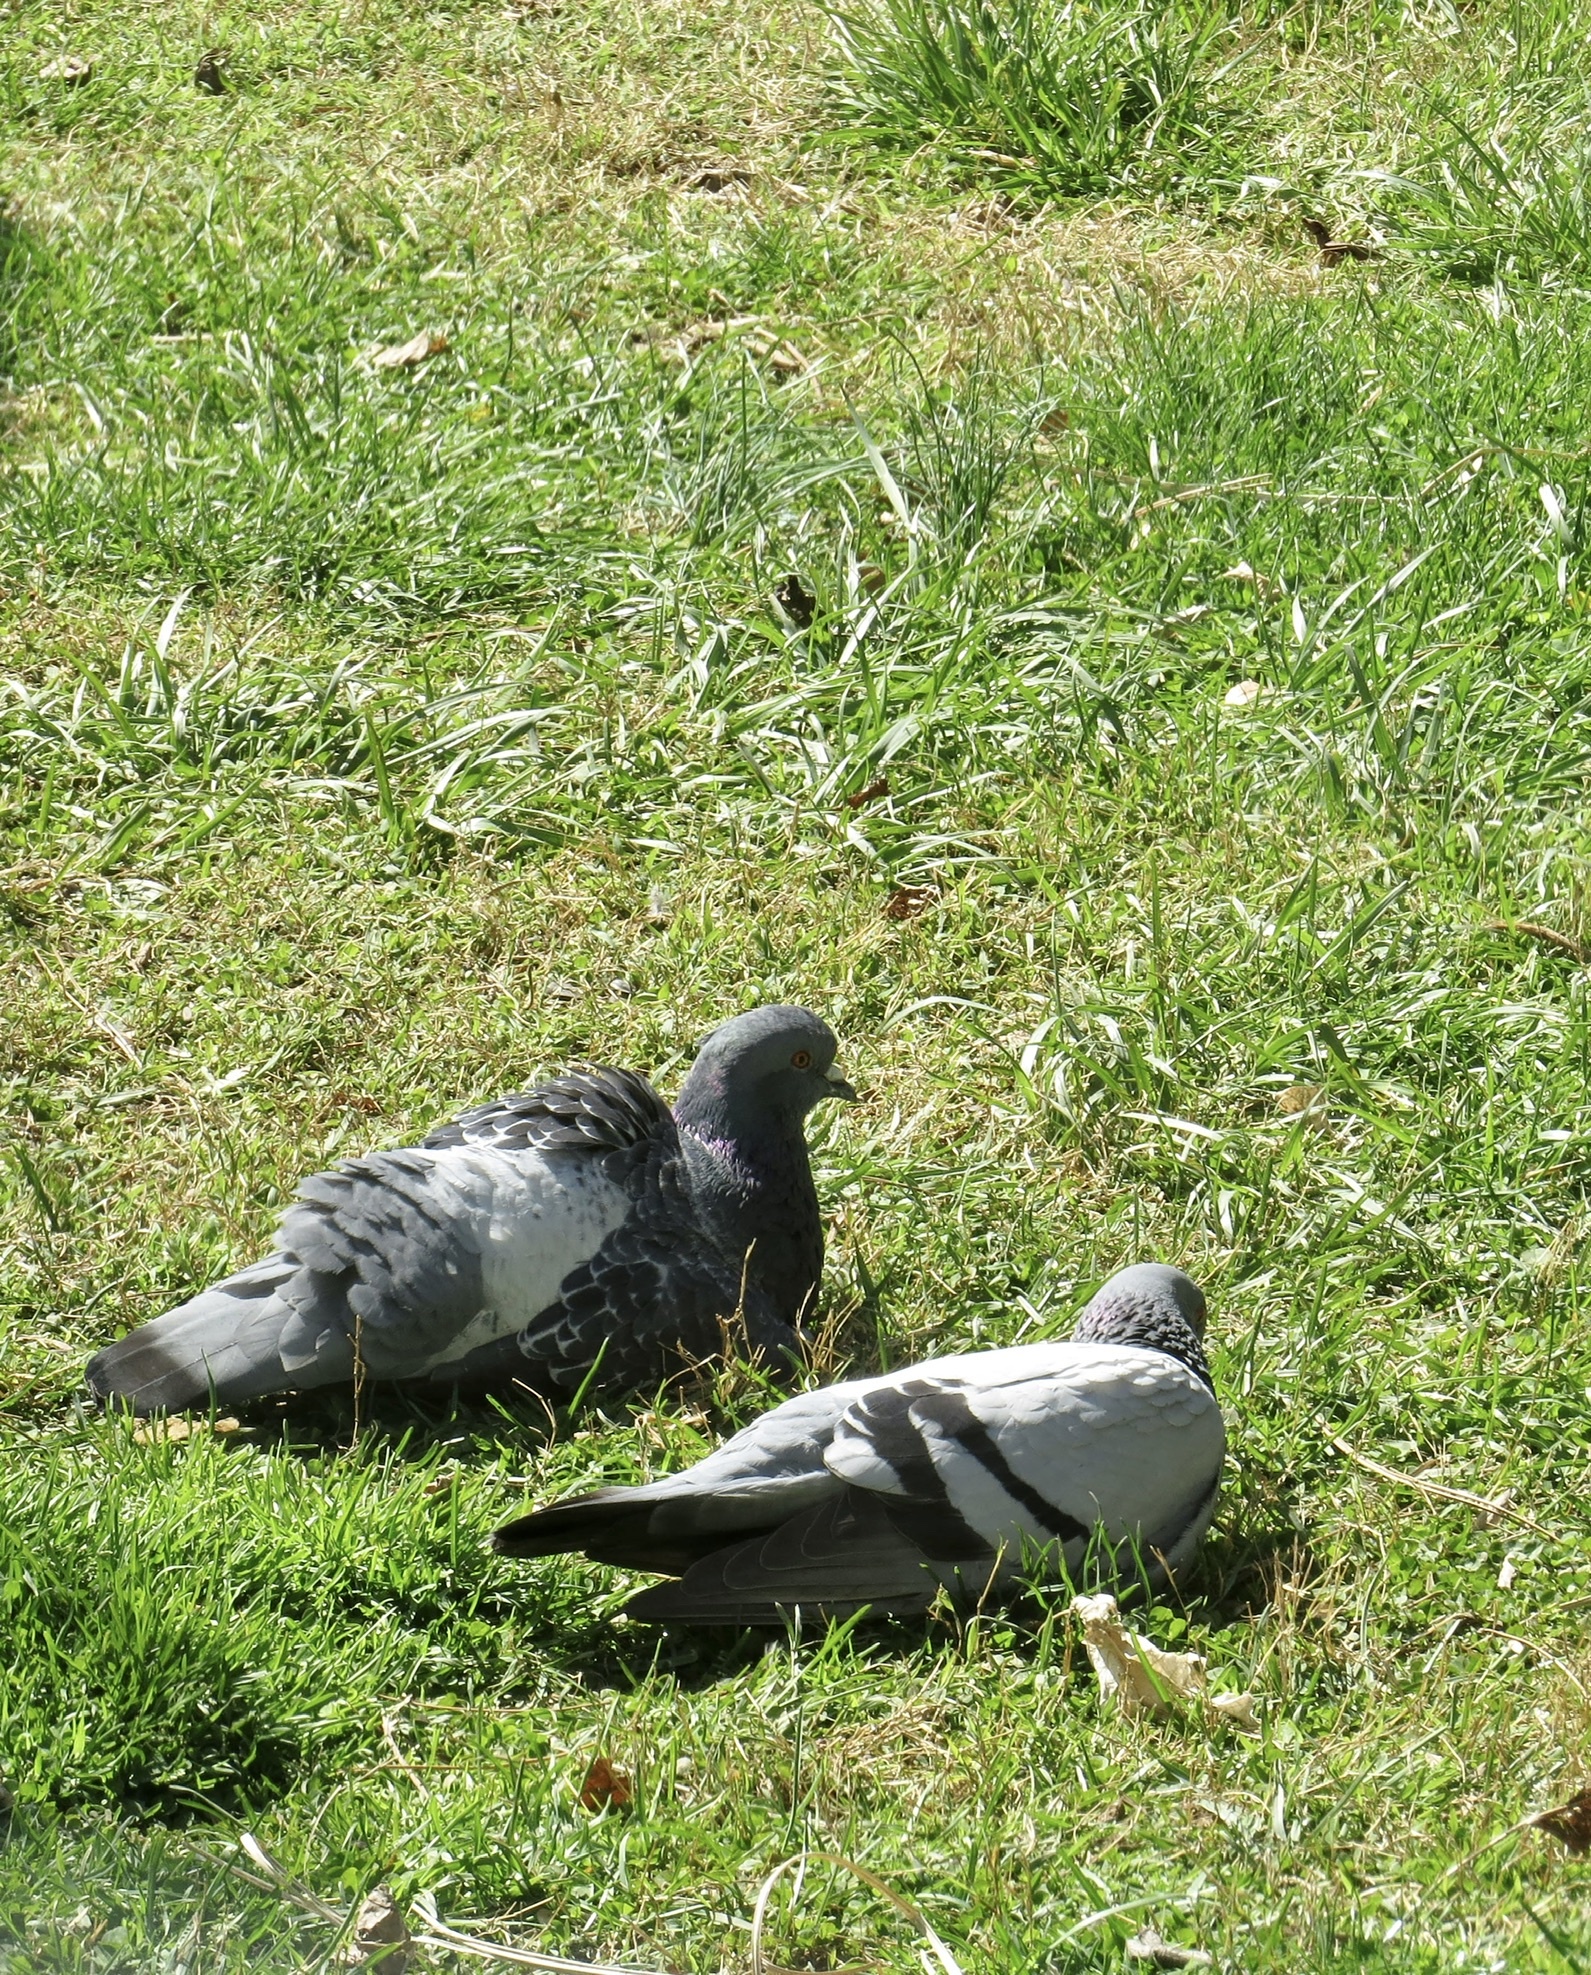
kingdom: Animalia
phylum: Chordata
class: Aves
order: Columbiformes
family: Columbidae
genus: Columba
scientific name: Columba livia
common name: Rock pigeon
